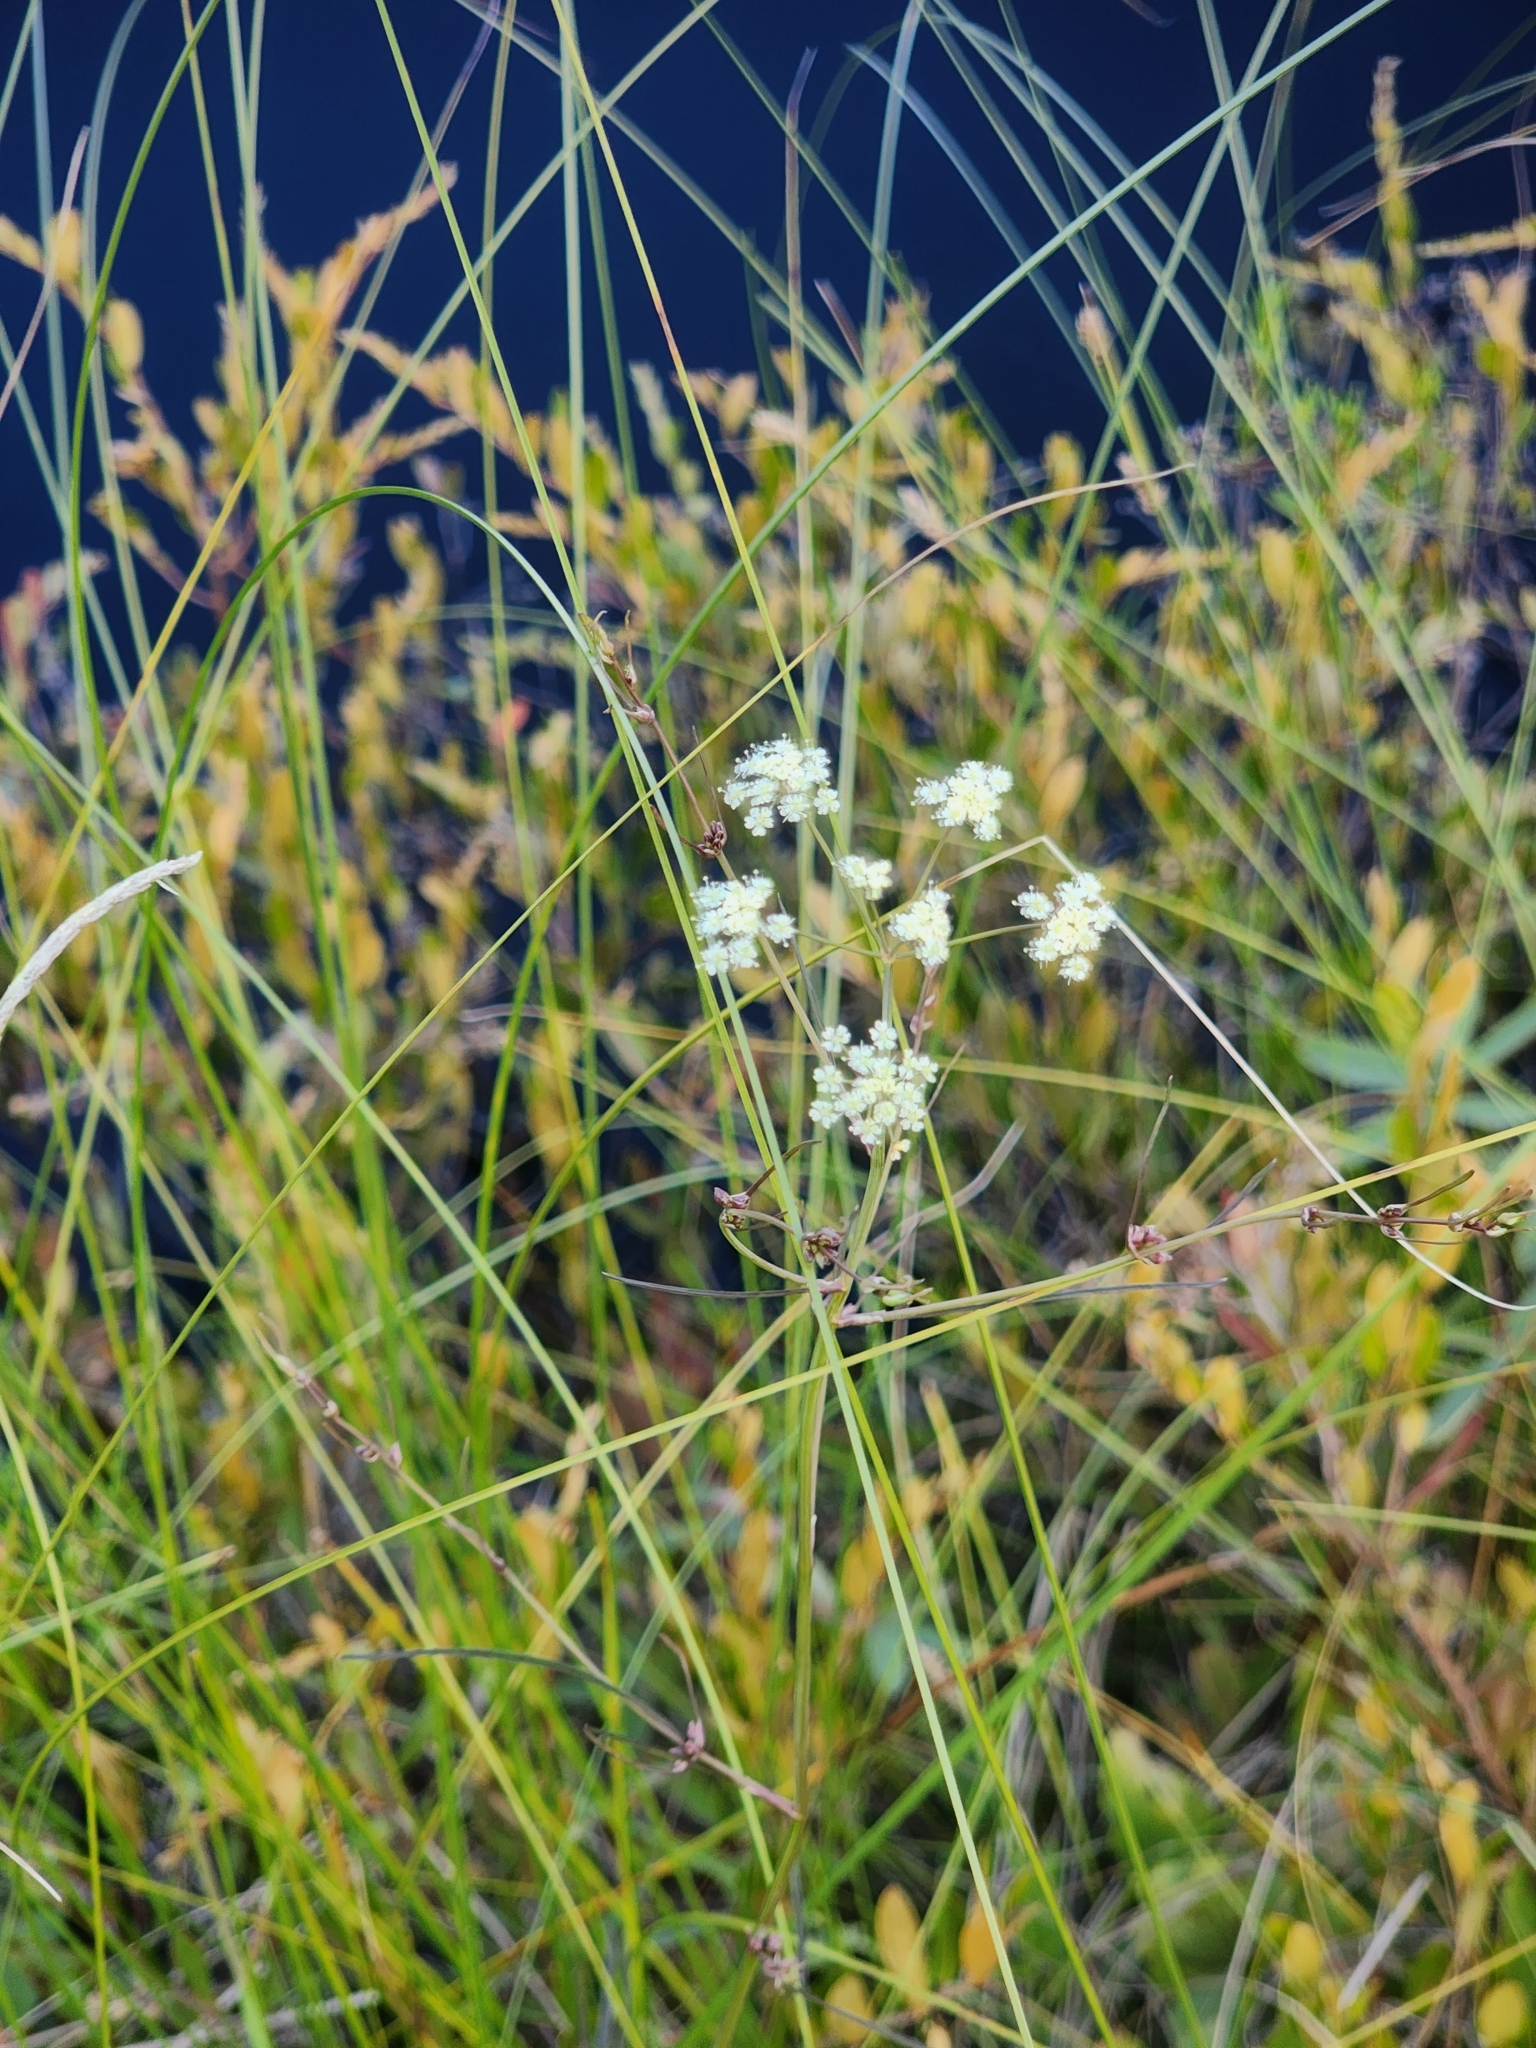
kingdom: Plantae
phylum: Tracheophyta
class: Magnoliopsida
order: Apiales
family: Apiaceae
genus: Cicuta
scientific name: Cicuta bulbifera
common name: Bulb-bearing water-hemlock
